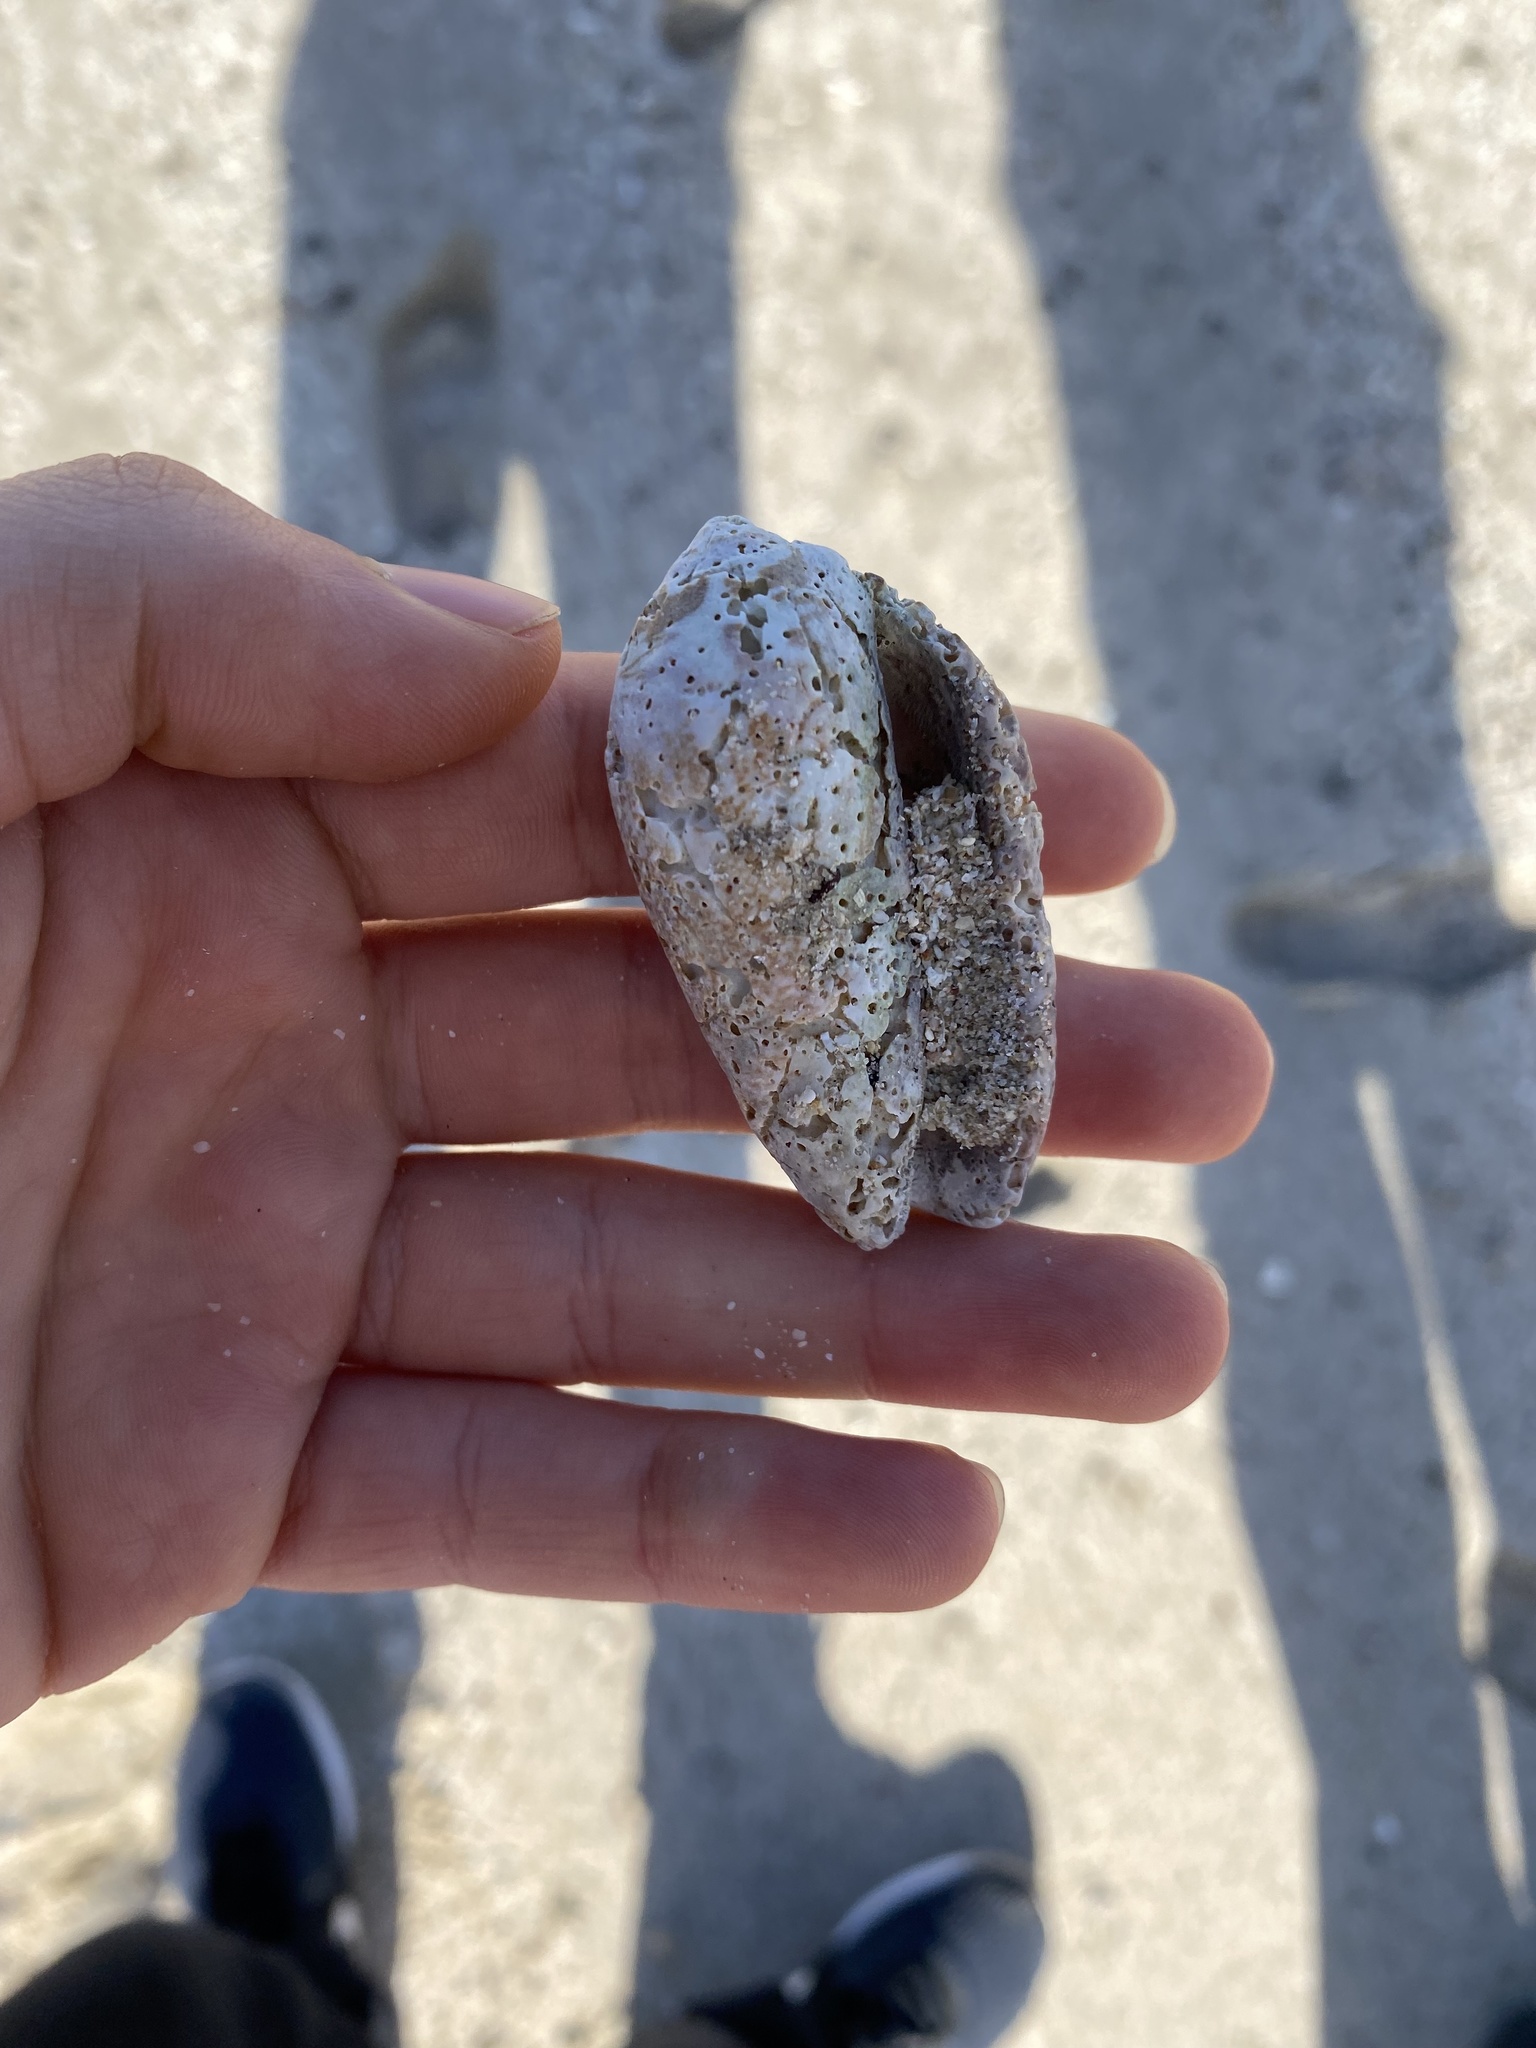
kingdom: Animalia
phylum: Mollusca
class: Gastropoda
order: Neogastropoda
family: Olividae
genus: Oliva
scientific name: Oliva incrassata
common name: Angled olive
